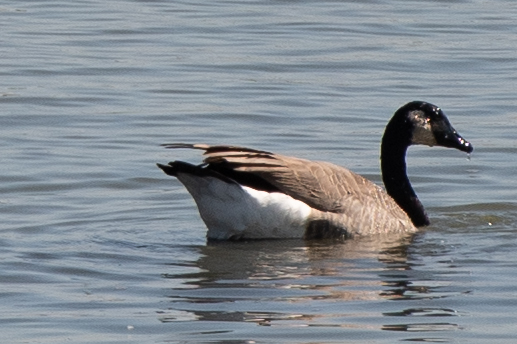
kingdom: Animalia
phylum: Chordata
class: Aves
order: Anseriformes
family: Anatidae
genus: Branta
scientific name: Branta canadensis
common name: Canada goose
